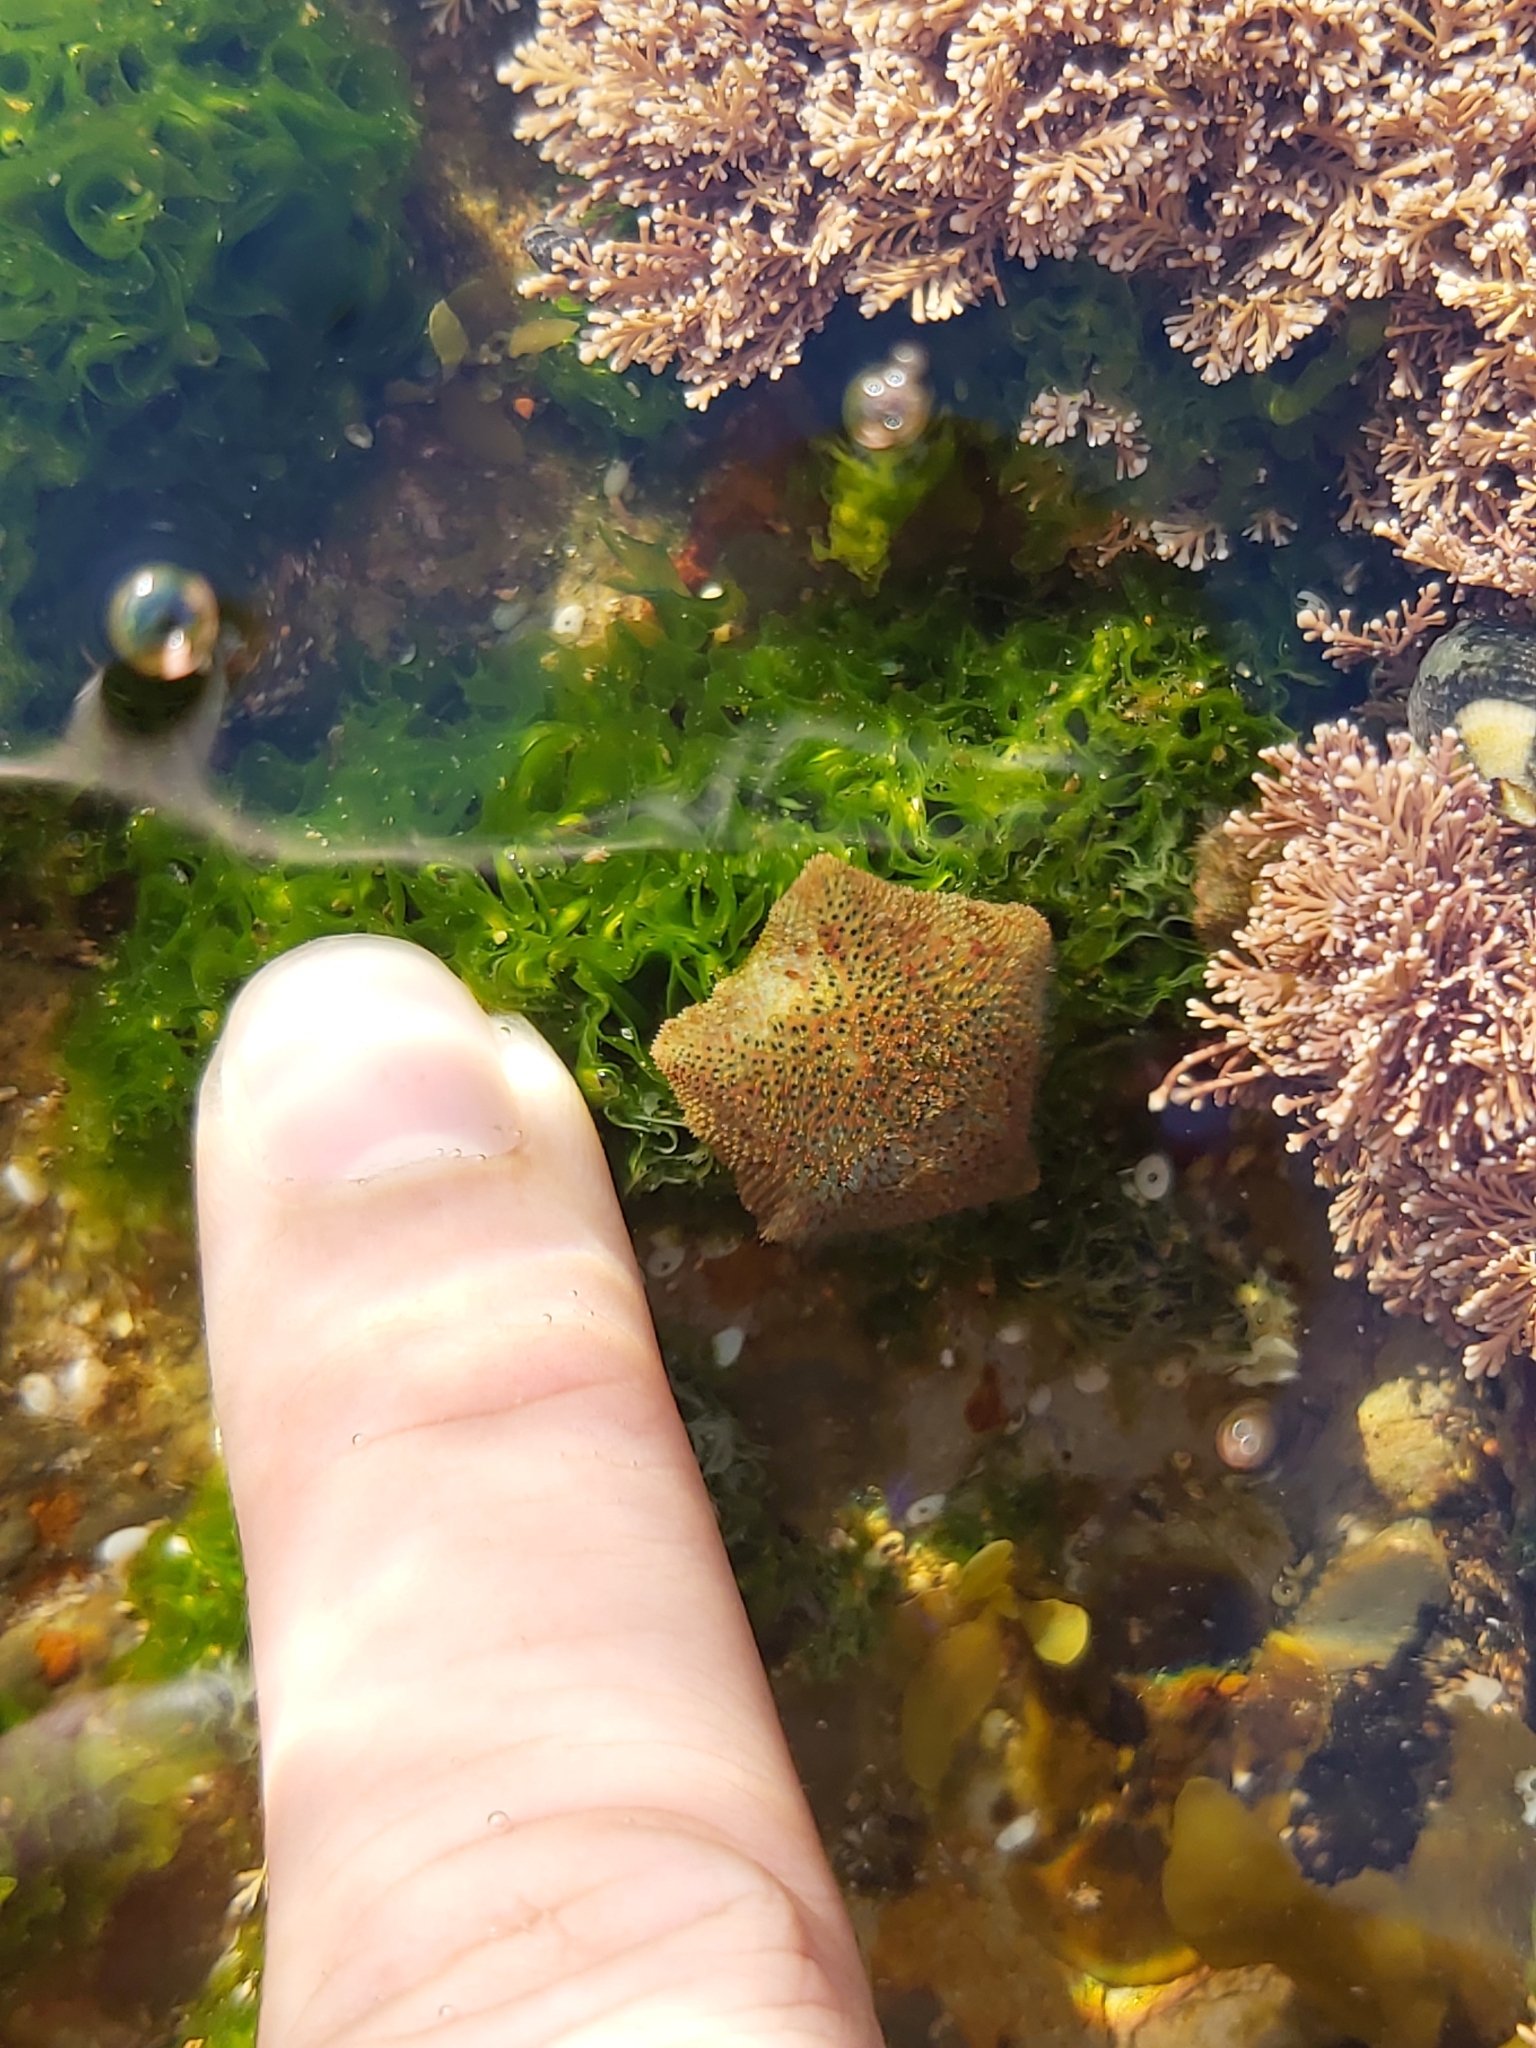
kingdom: Animalia
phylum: Echinodermata
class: Asteroidea
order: Valvatida
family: Asterinidae
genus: Parvulastra
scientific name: Parvulastra exigua
